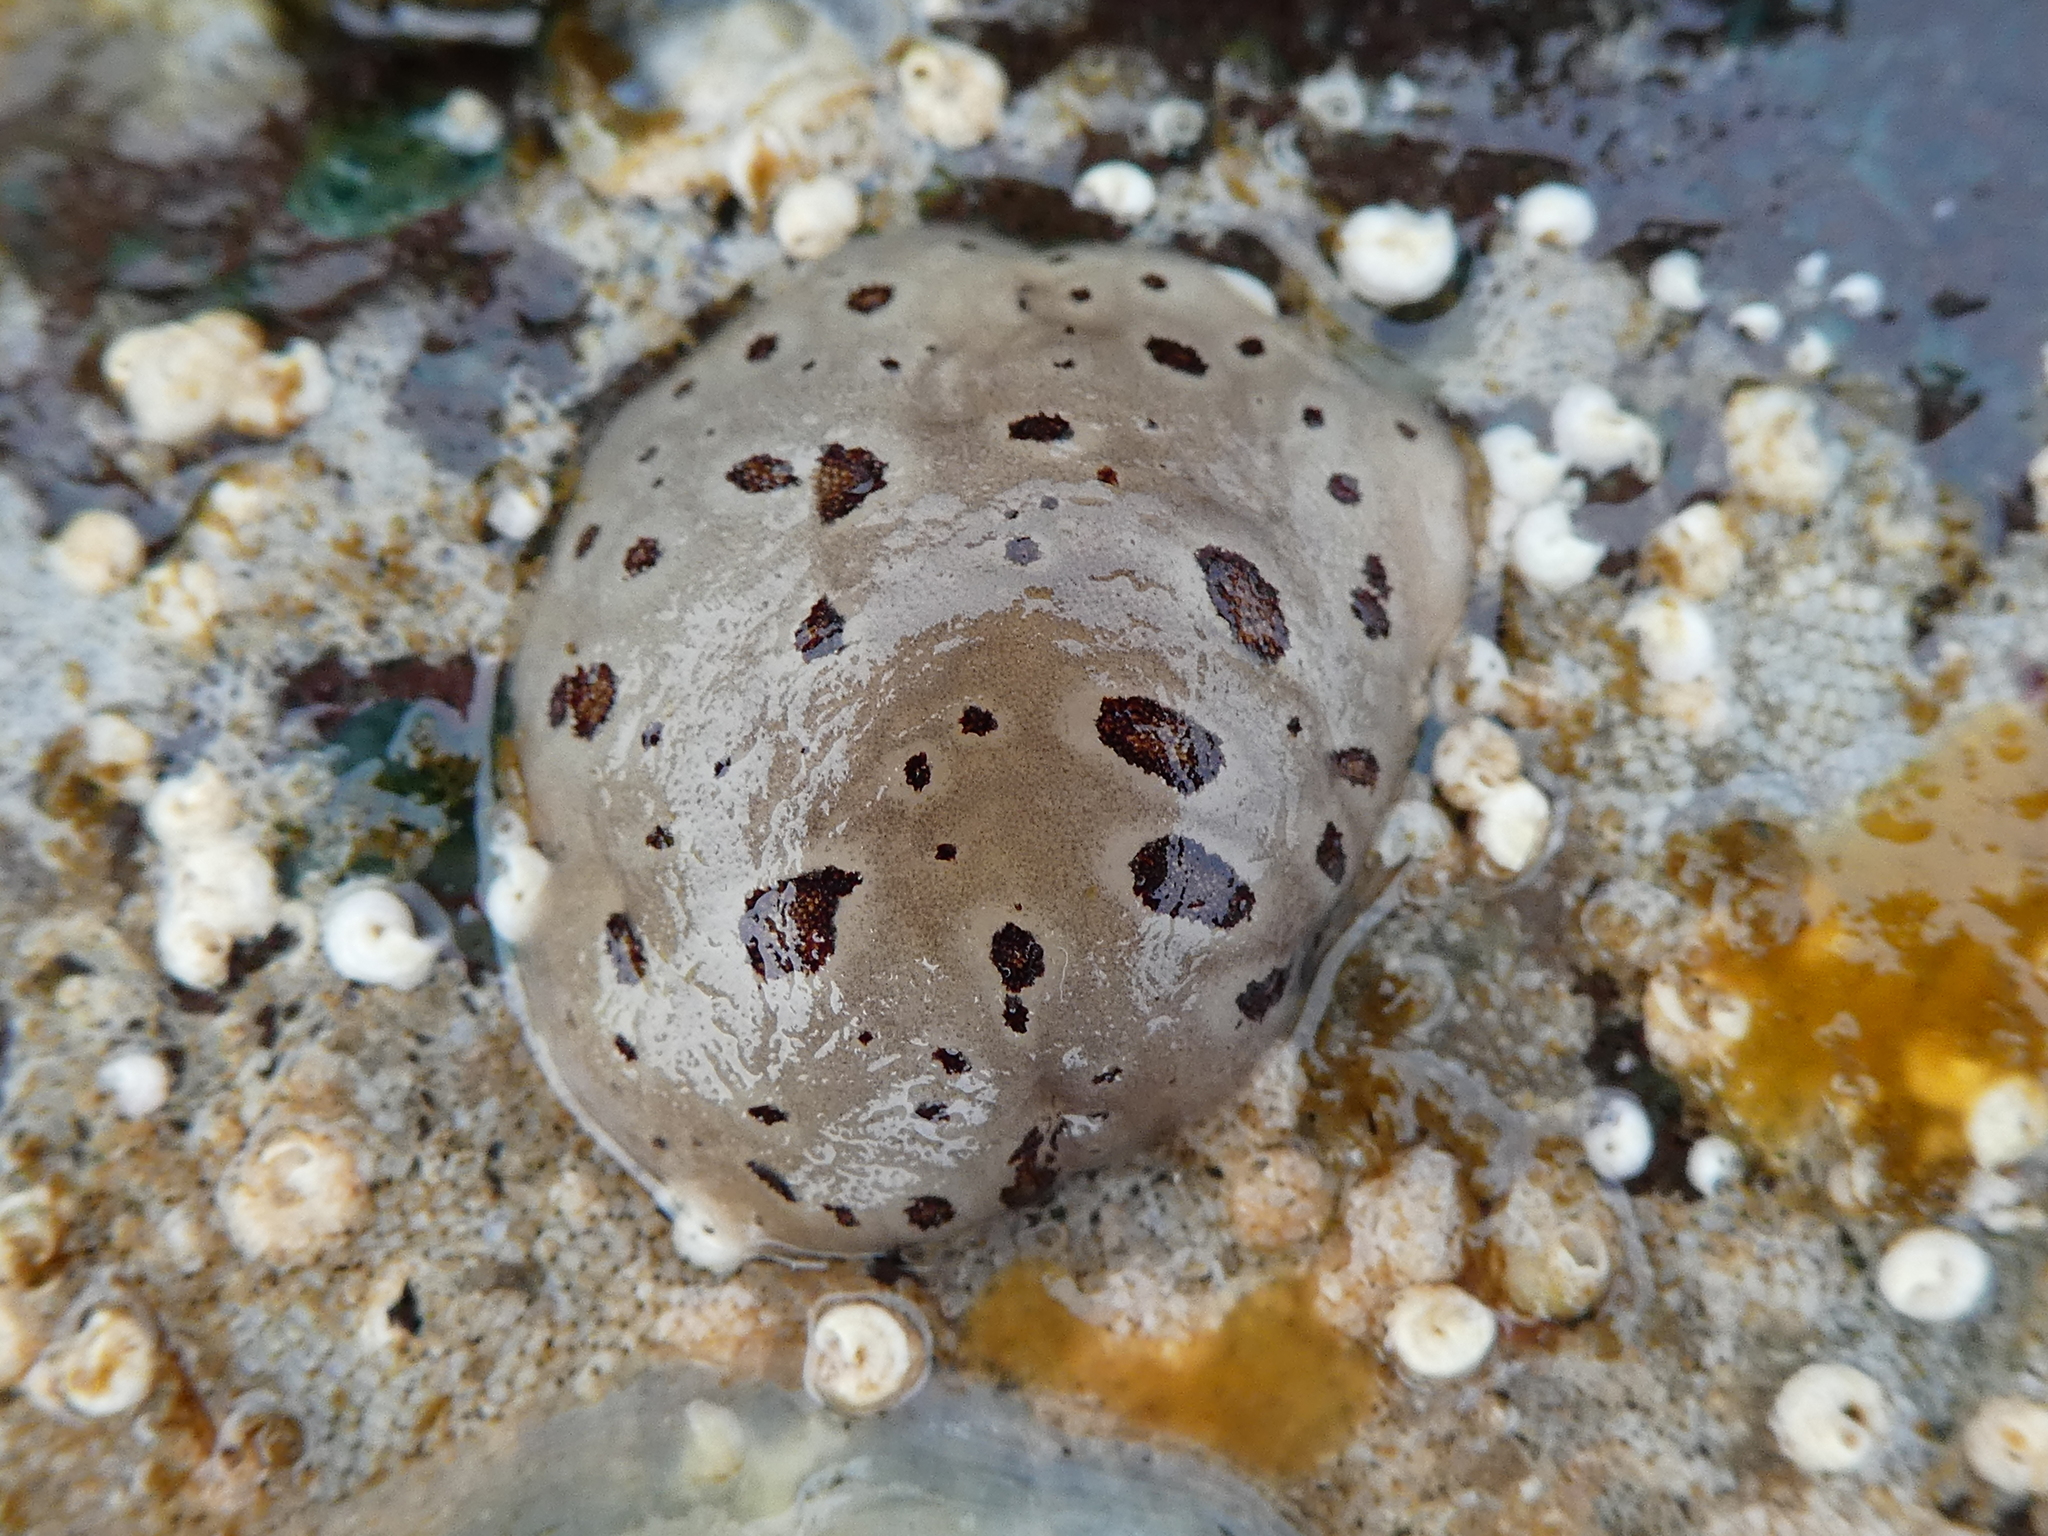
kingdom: Animalia
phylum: Mollusca
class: Gastropoda
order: Nudibranchia
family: Discodorididae
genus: Diaulula
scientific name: Diaulula odonoghuei
